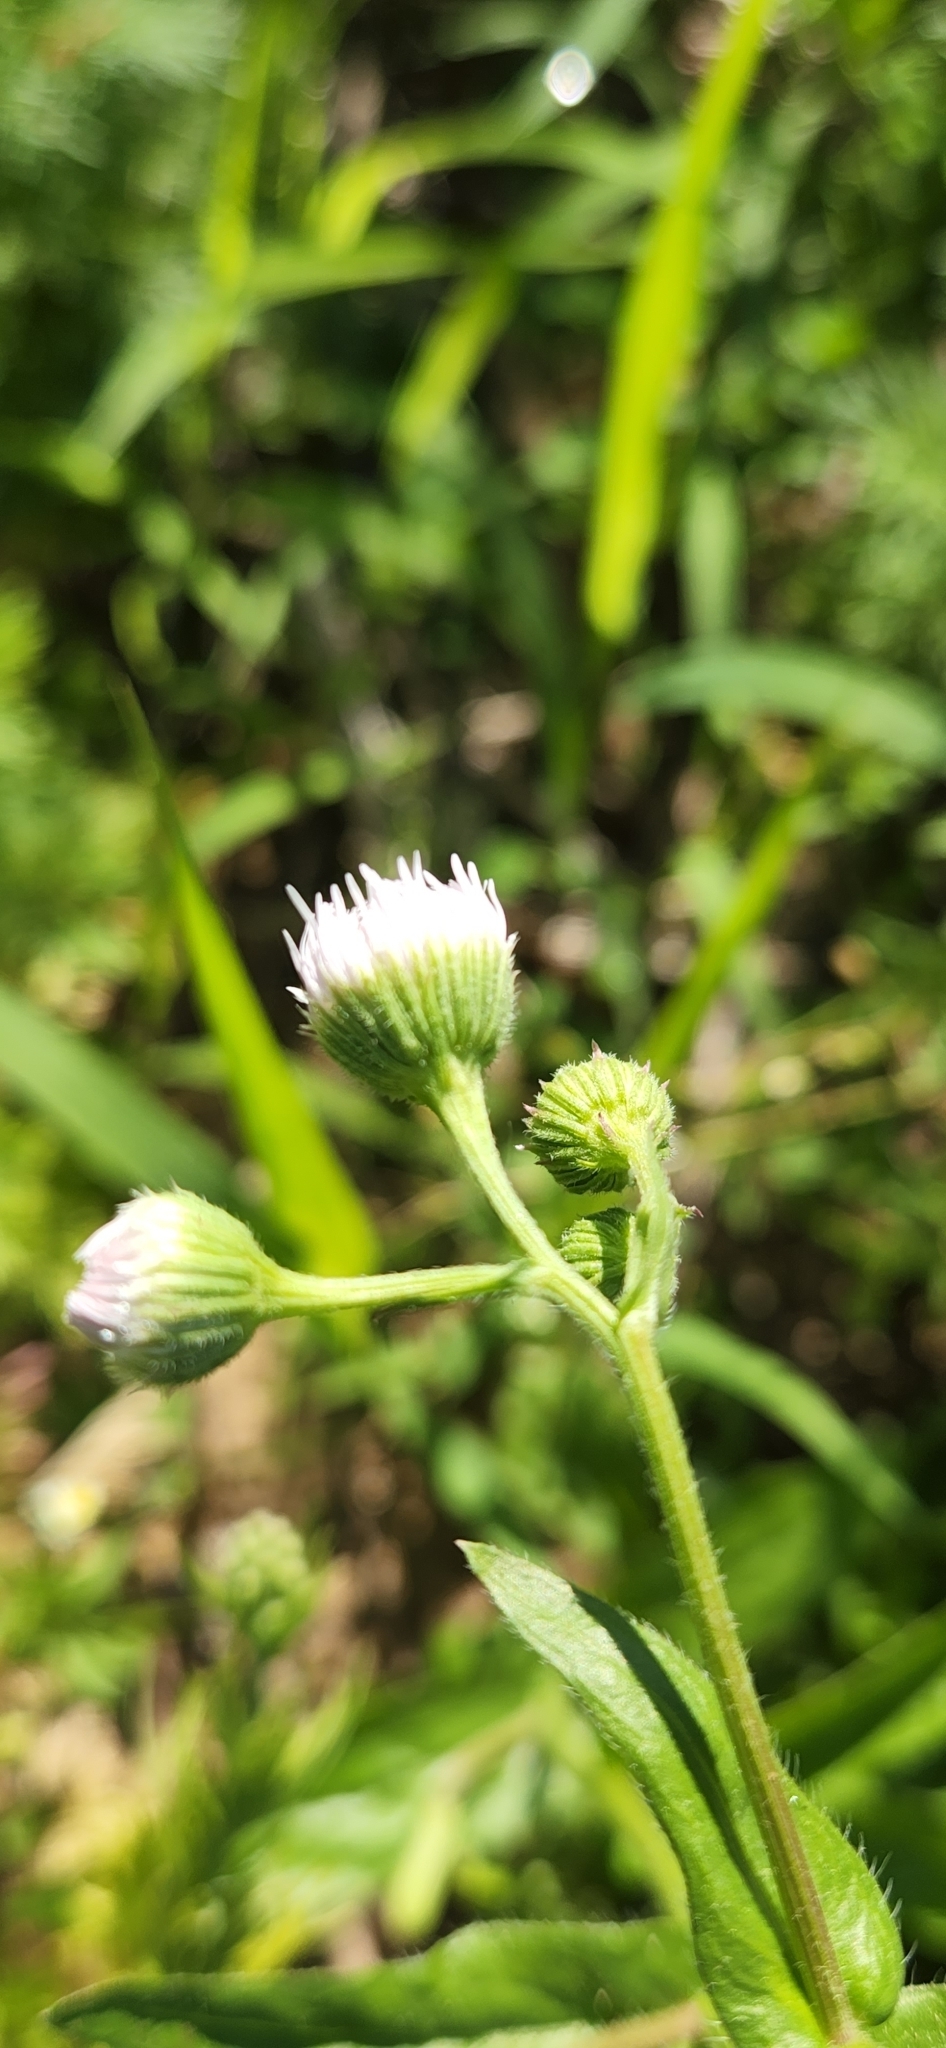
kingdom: Plantae
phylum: Tracheophyta
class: Magnoliopsida
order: Asterales
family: Asteraceae
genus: Erigeron
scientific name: Erigeron philadelphicus
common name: Robin's-plantain
